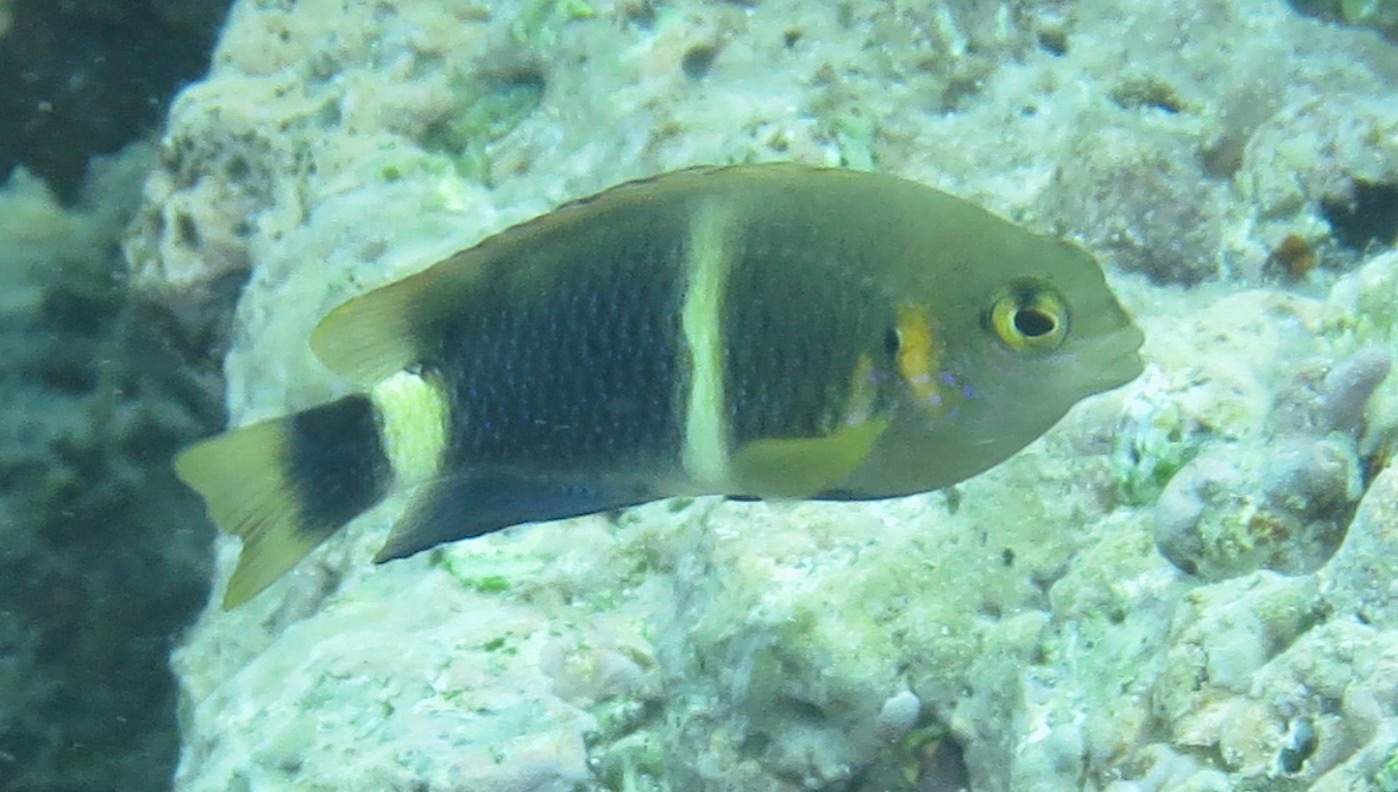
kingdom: Animalia
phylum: Chordata
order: Perciformes
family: Pomacentridae
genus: Chrysiptera
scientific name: Chrysiptera brownriggii
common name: Surge demoiselle
